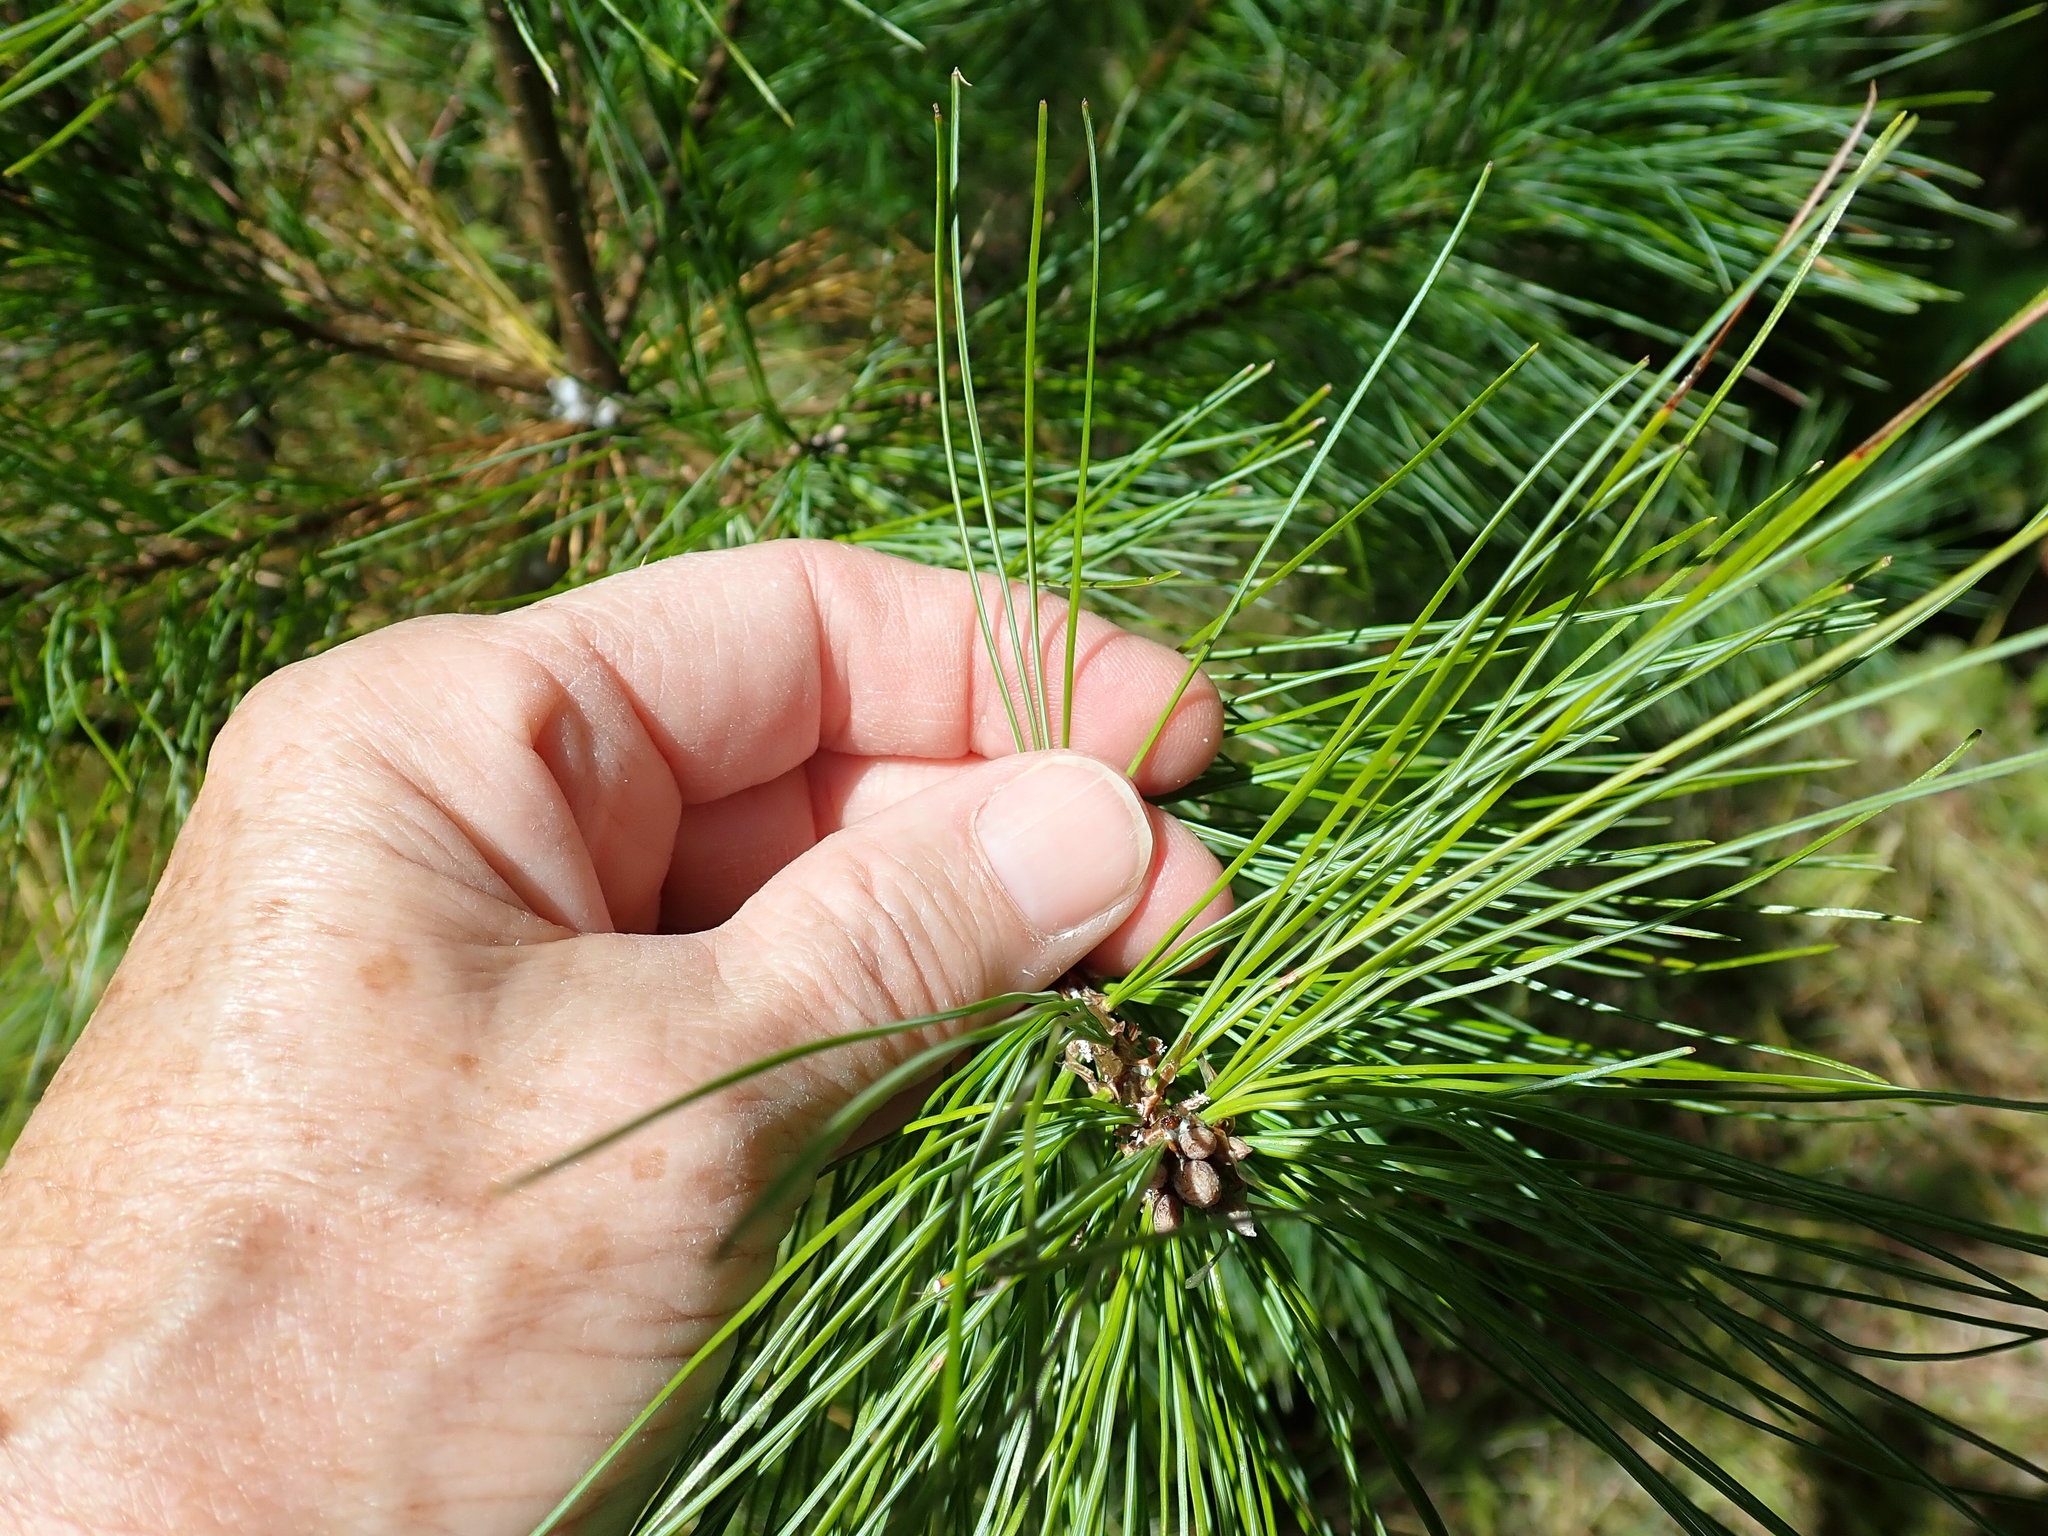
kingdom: Plantae
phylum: Tracheophyta
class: Pinopsida
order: Pinales
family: Pinaceae
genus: Pinus
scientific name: Pinus strobus
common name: Weymouth pine
